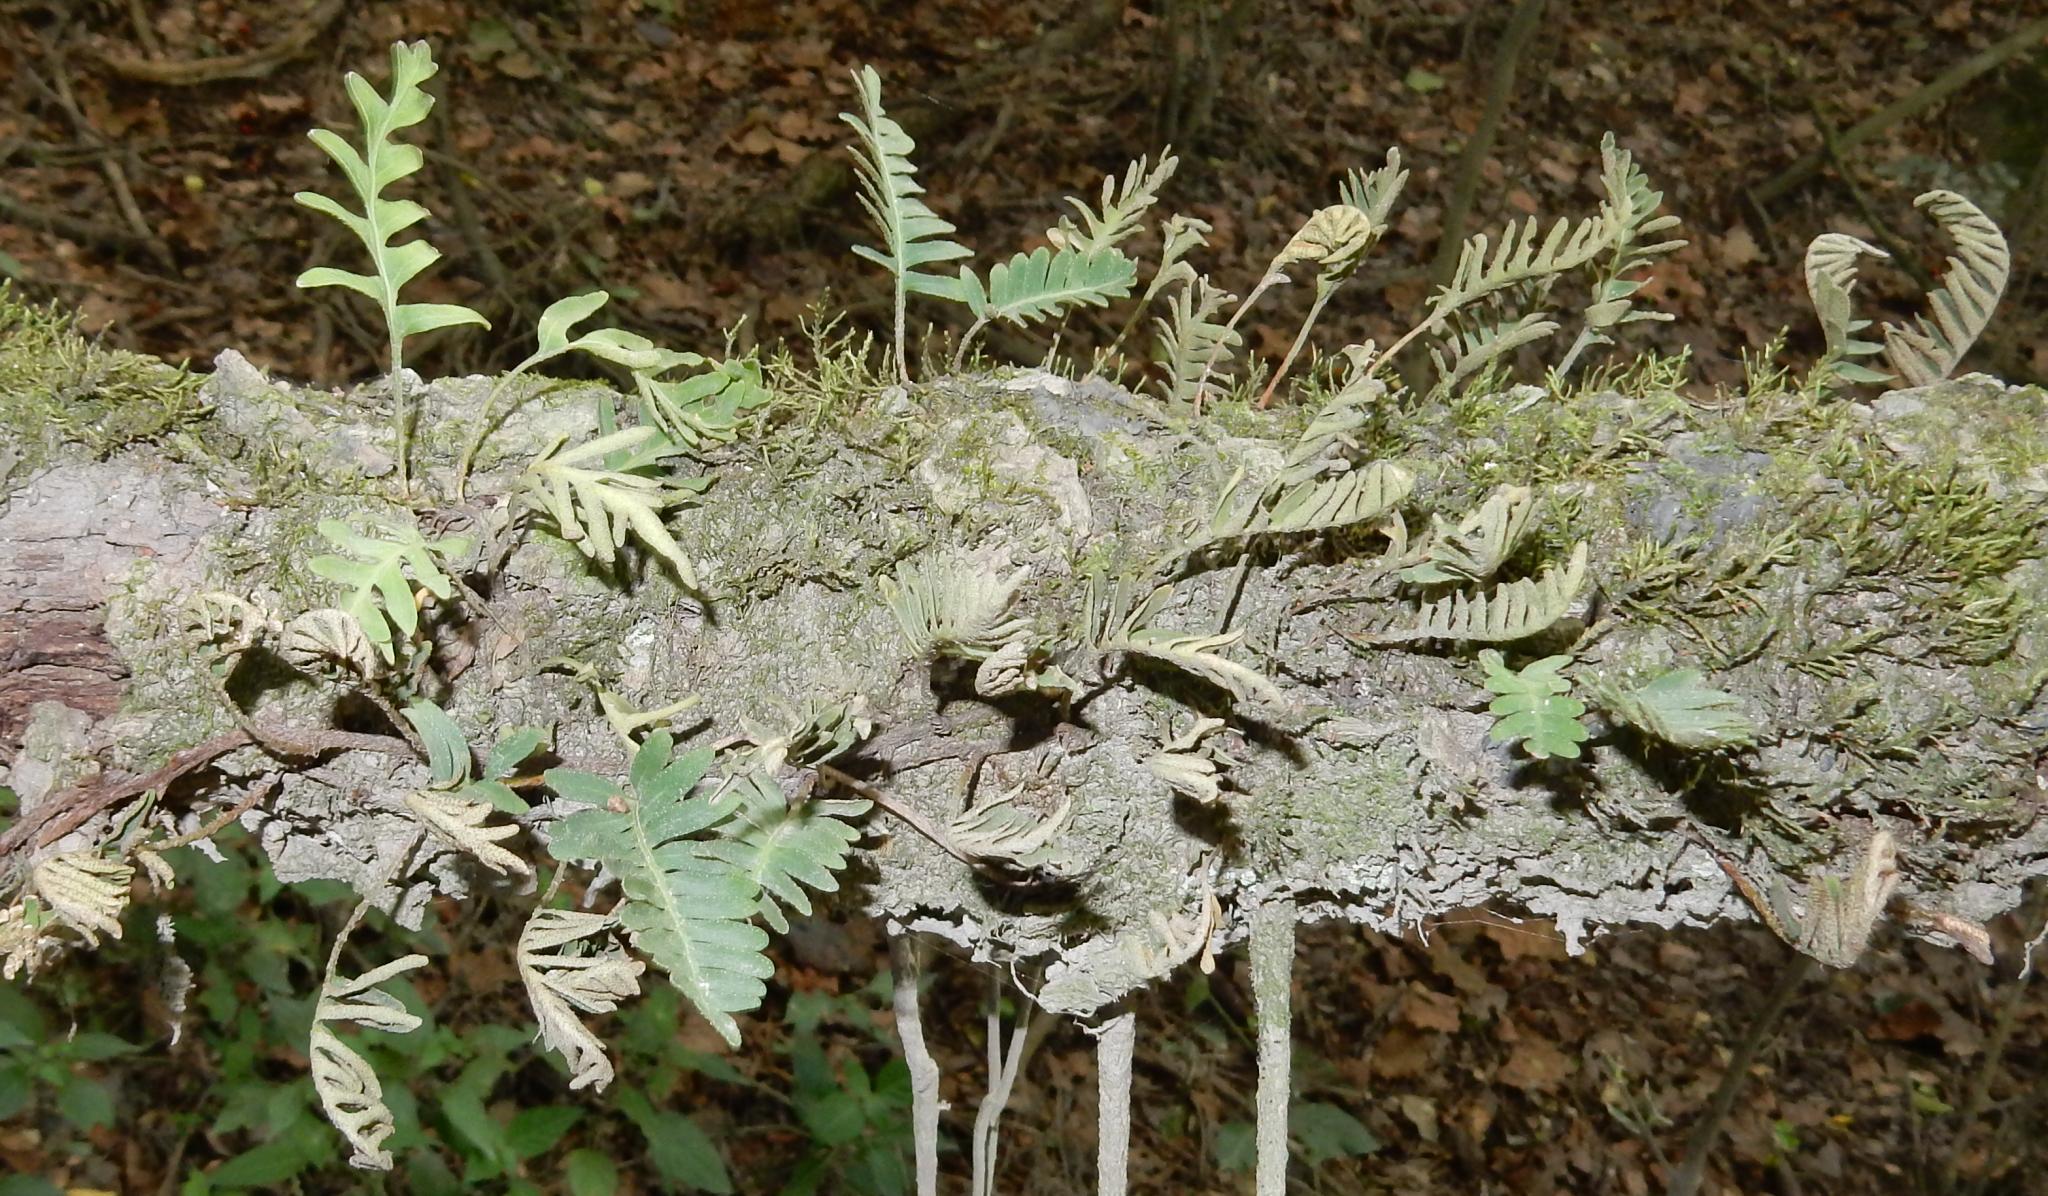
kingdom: Plantae
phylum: Tracheophyta
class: Polypodiopsida
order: Polypodiales
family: Polypodiaceae
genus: Pleopeltis
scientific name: Pleopeltis ecklonii
